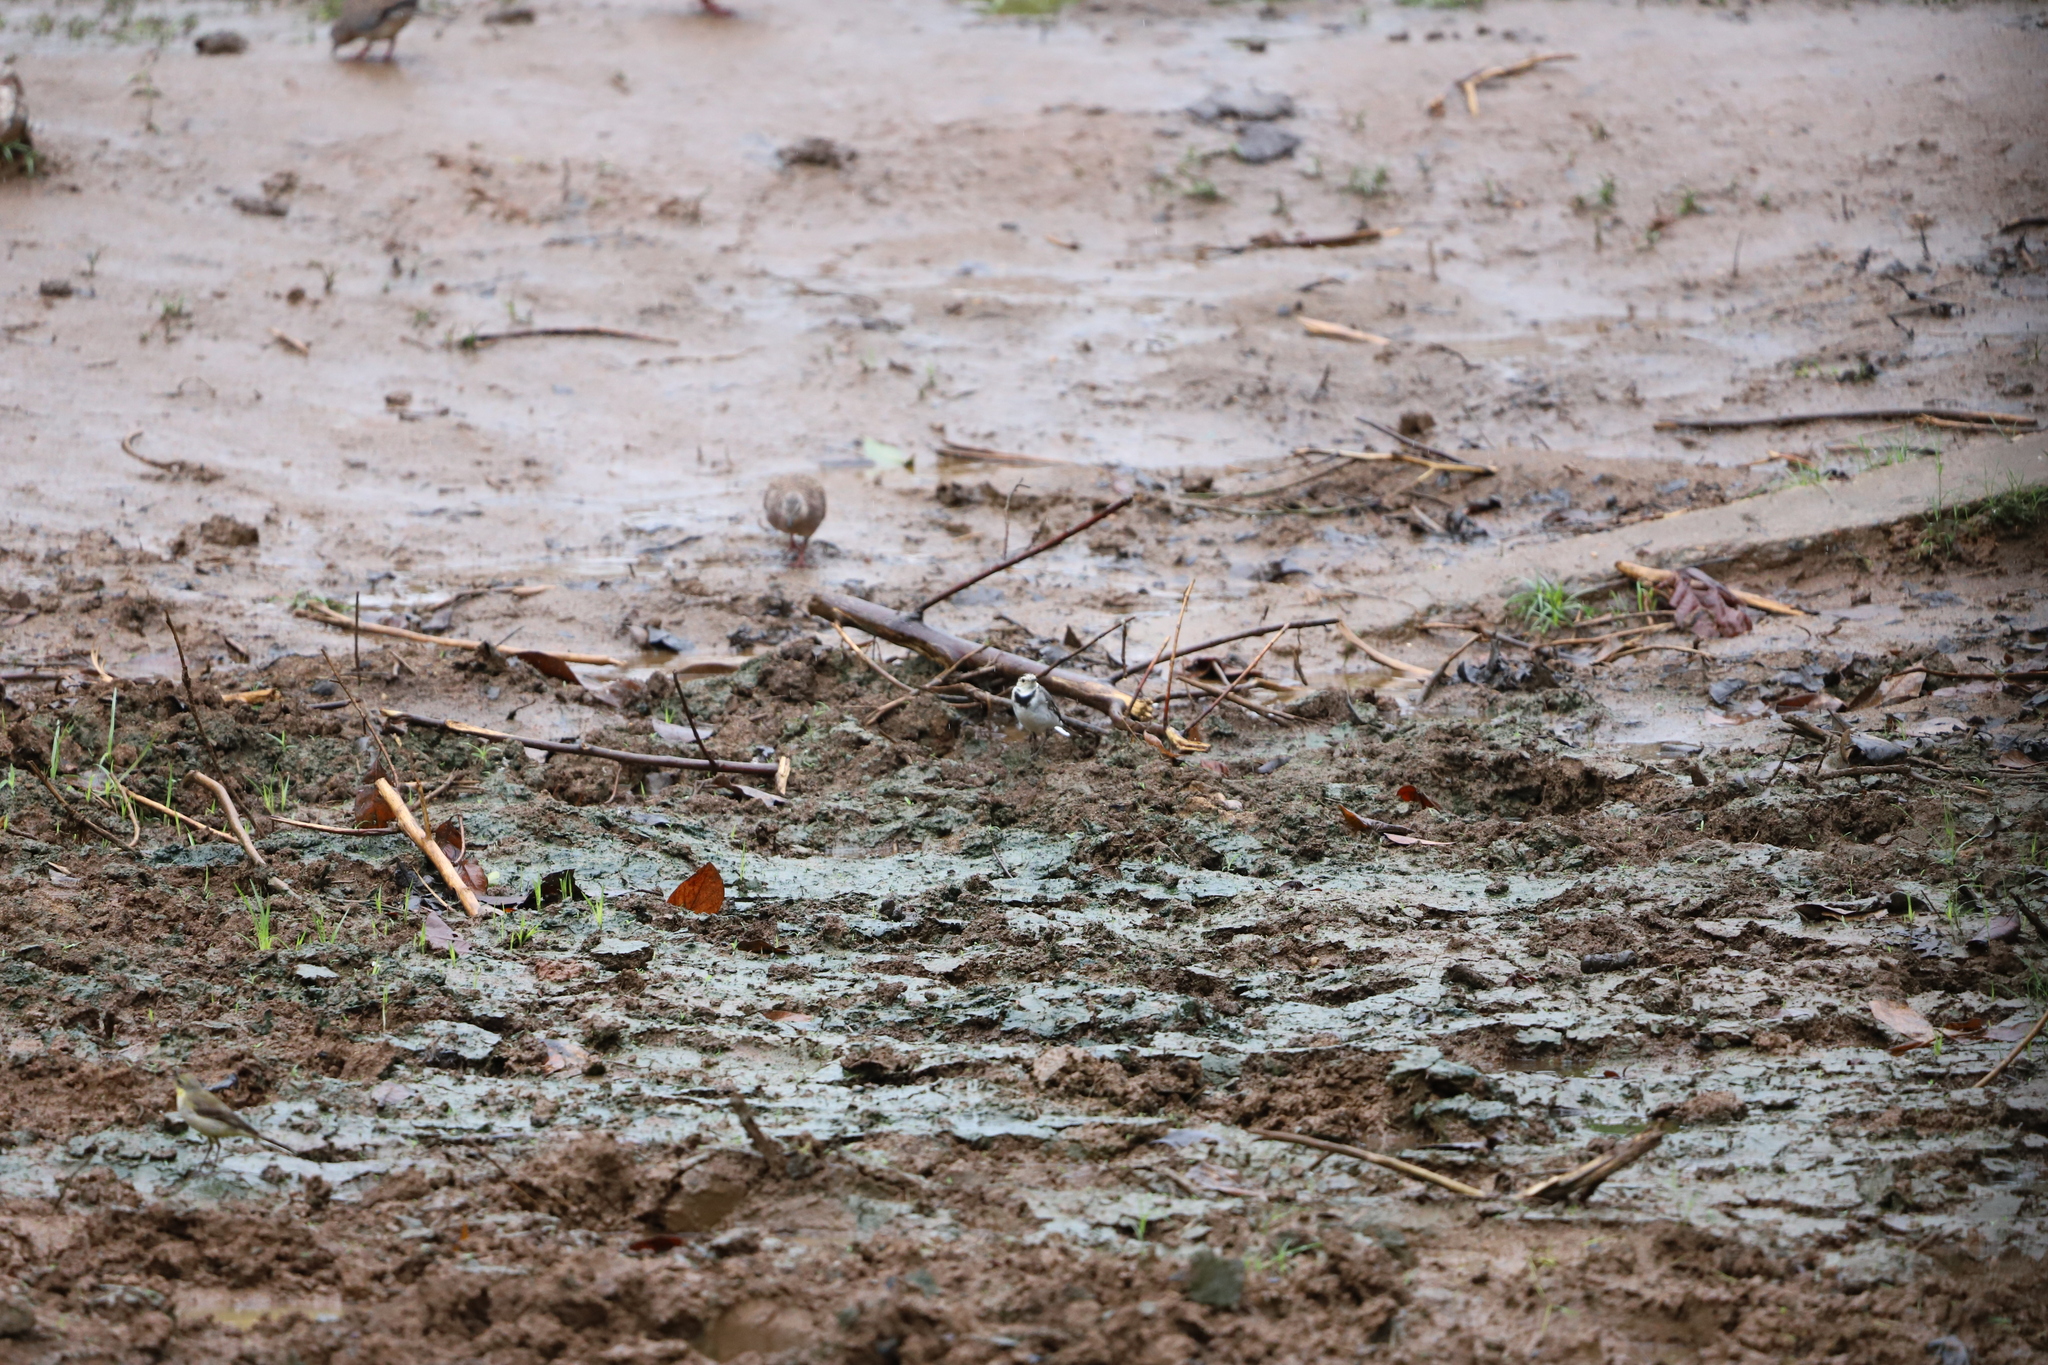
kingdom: Animalia
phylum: Chordata
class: Aves
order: Columbiformes
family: Columbidae
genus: Spilopelia
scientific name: Spilopelia chinensis
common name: Spotted dove
